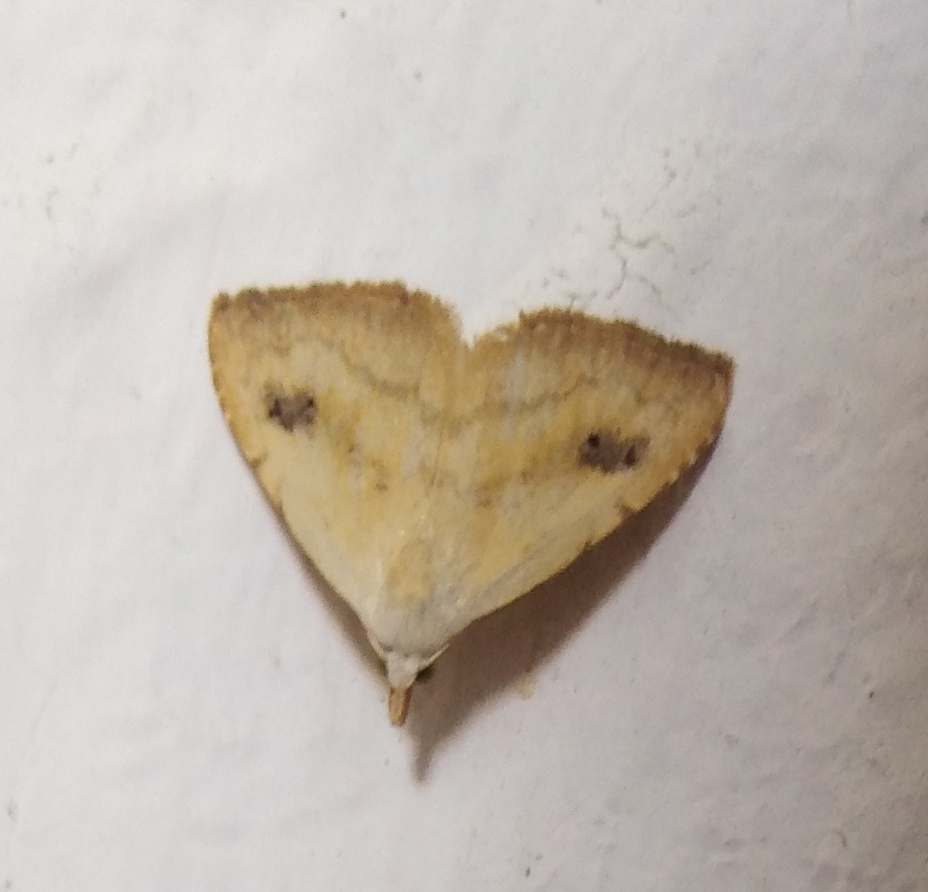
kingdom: Animalia
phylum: Arthropoda
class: Insecta
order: Lepidoptera
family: Erebidae
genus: Rivula
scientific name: Rivula sericealis
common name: Straw dot
